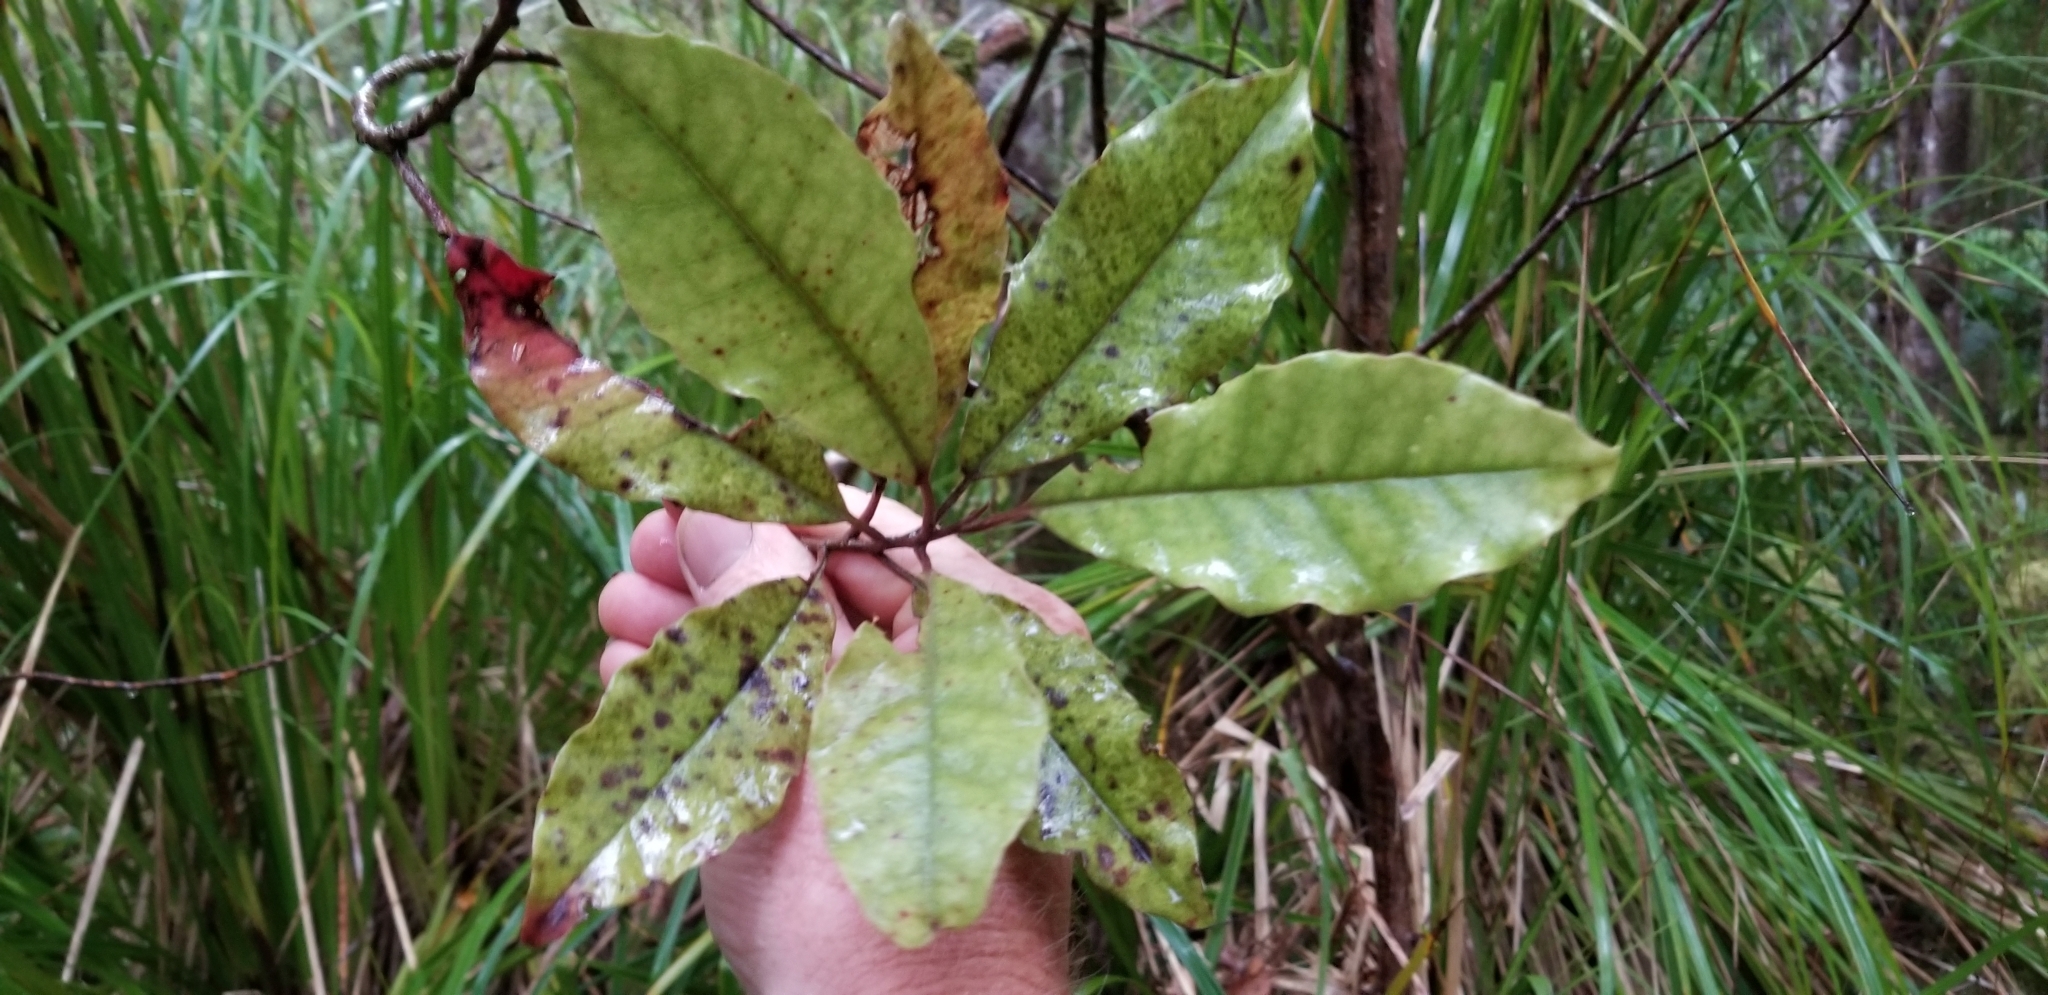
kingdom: Plantae
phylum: Tracheophyta
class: Magnoliopsida
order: Paracryphiales
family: Paracryphiaceae
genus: Quintinia
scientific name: Quintinia serrata
